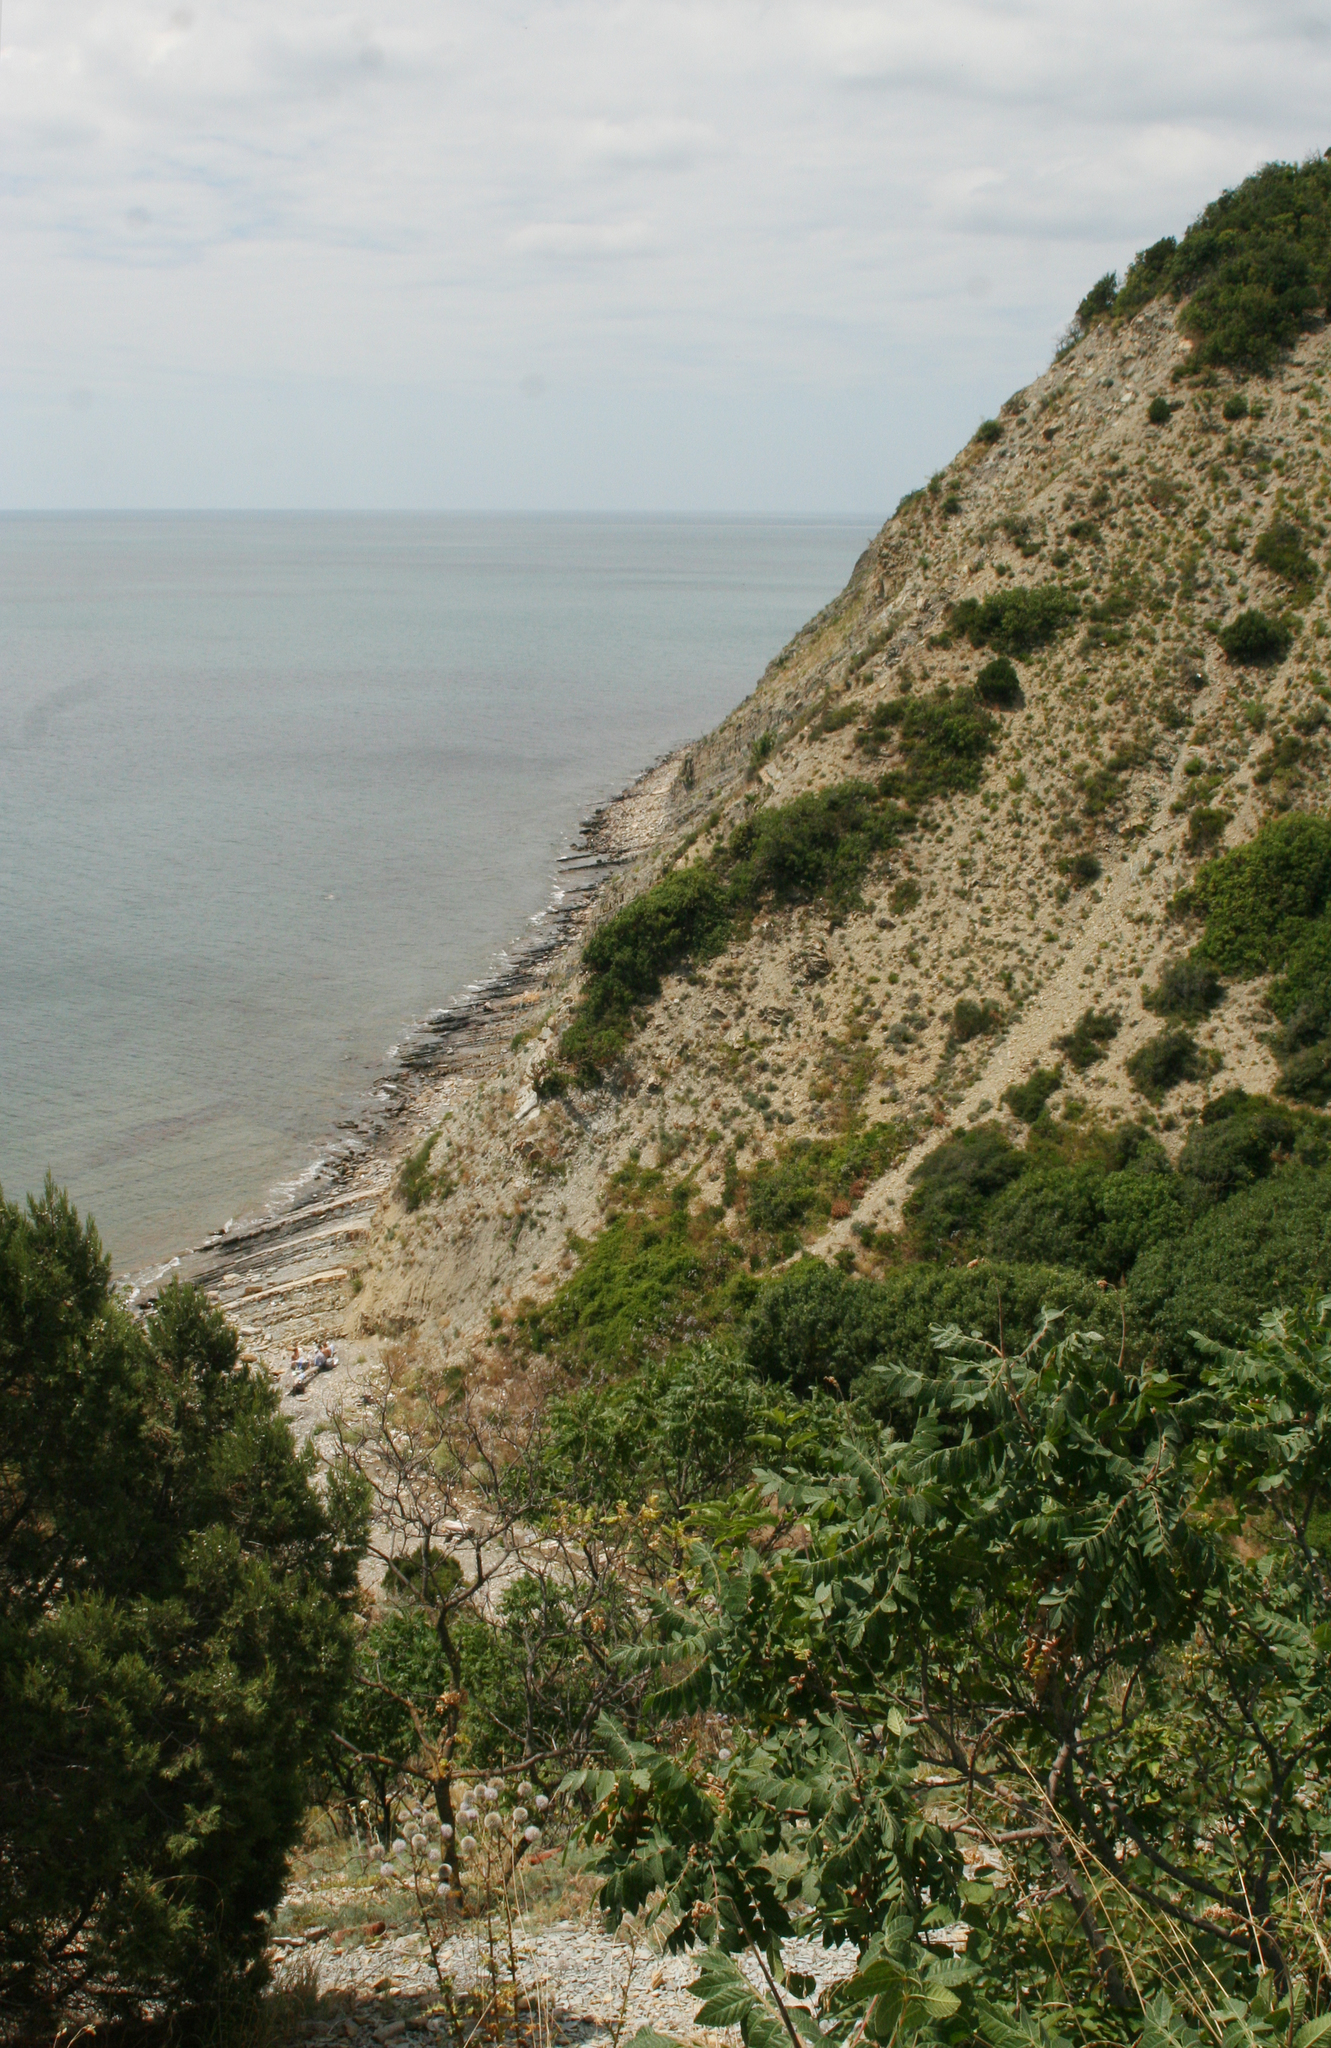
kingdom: Plantae
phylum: Tracheophyta
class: Magnoliopsida
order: Sapindales
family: Anacardiaceae
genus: Rhus
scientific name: Rhus coriaria
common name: Tanner's sumach
